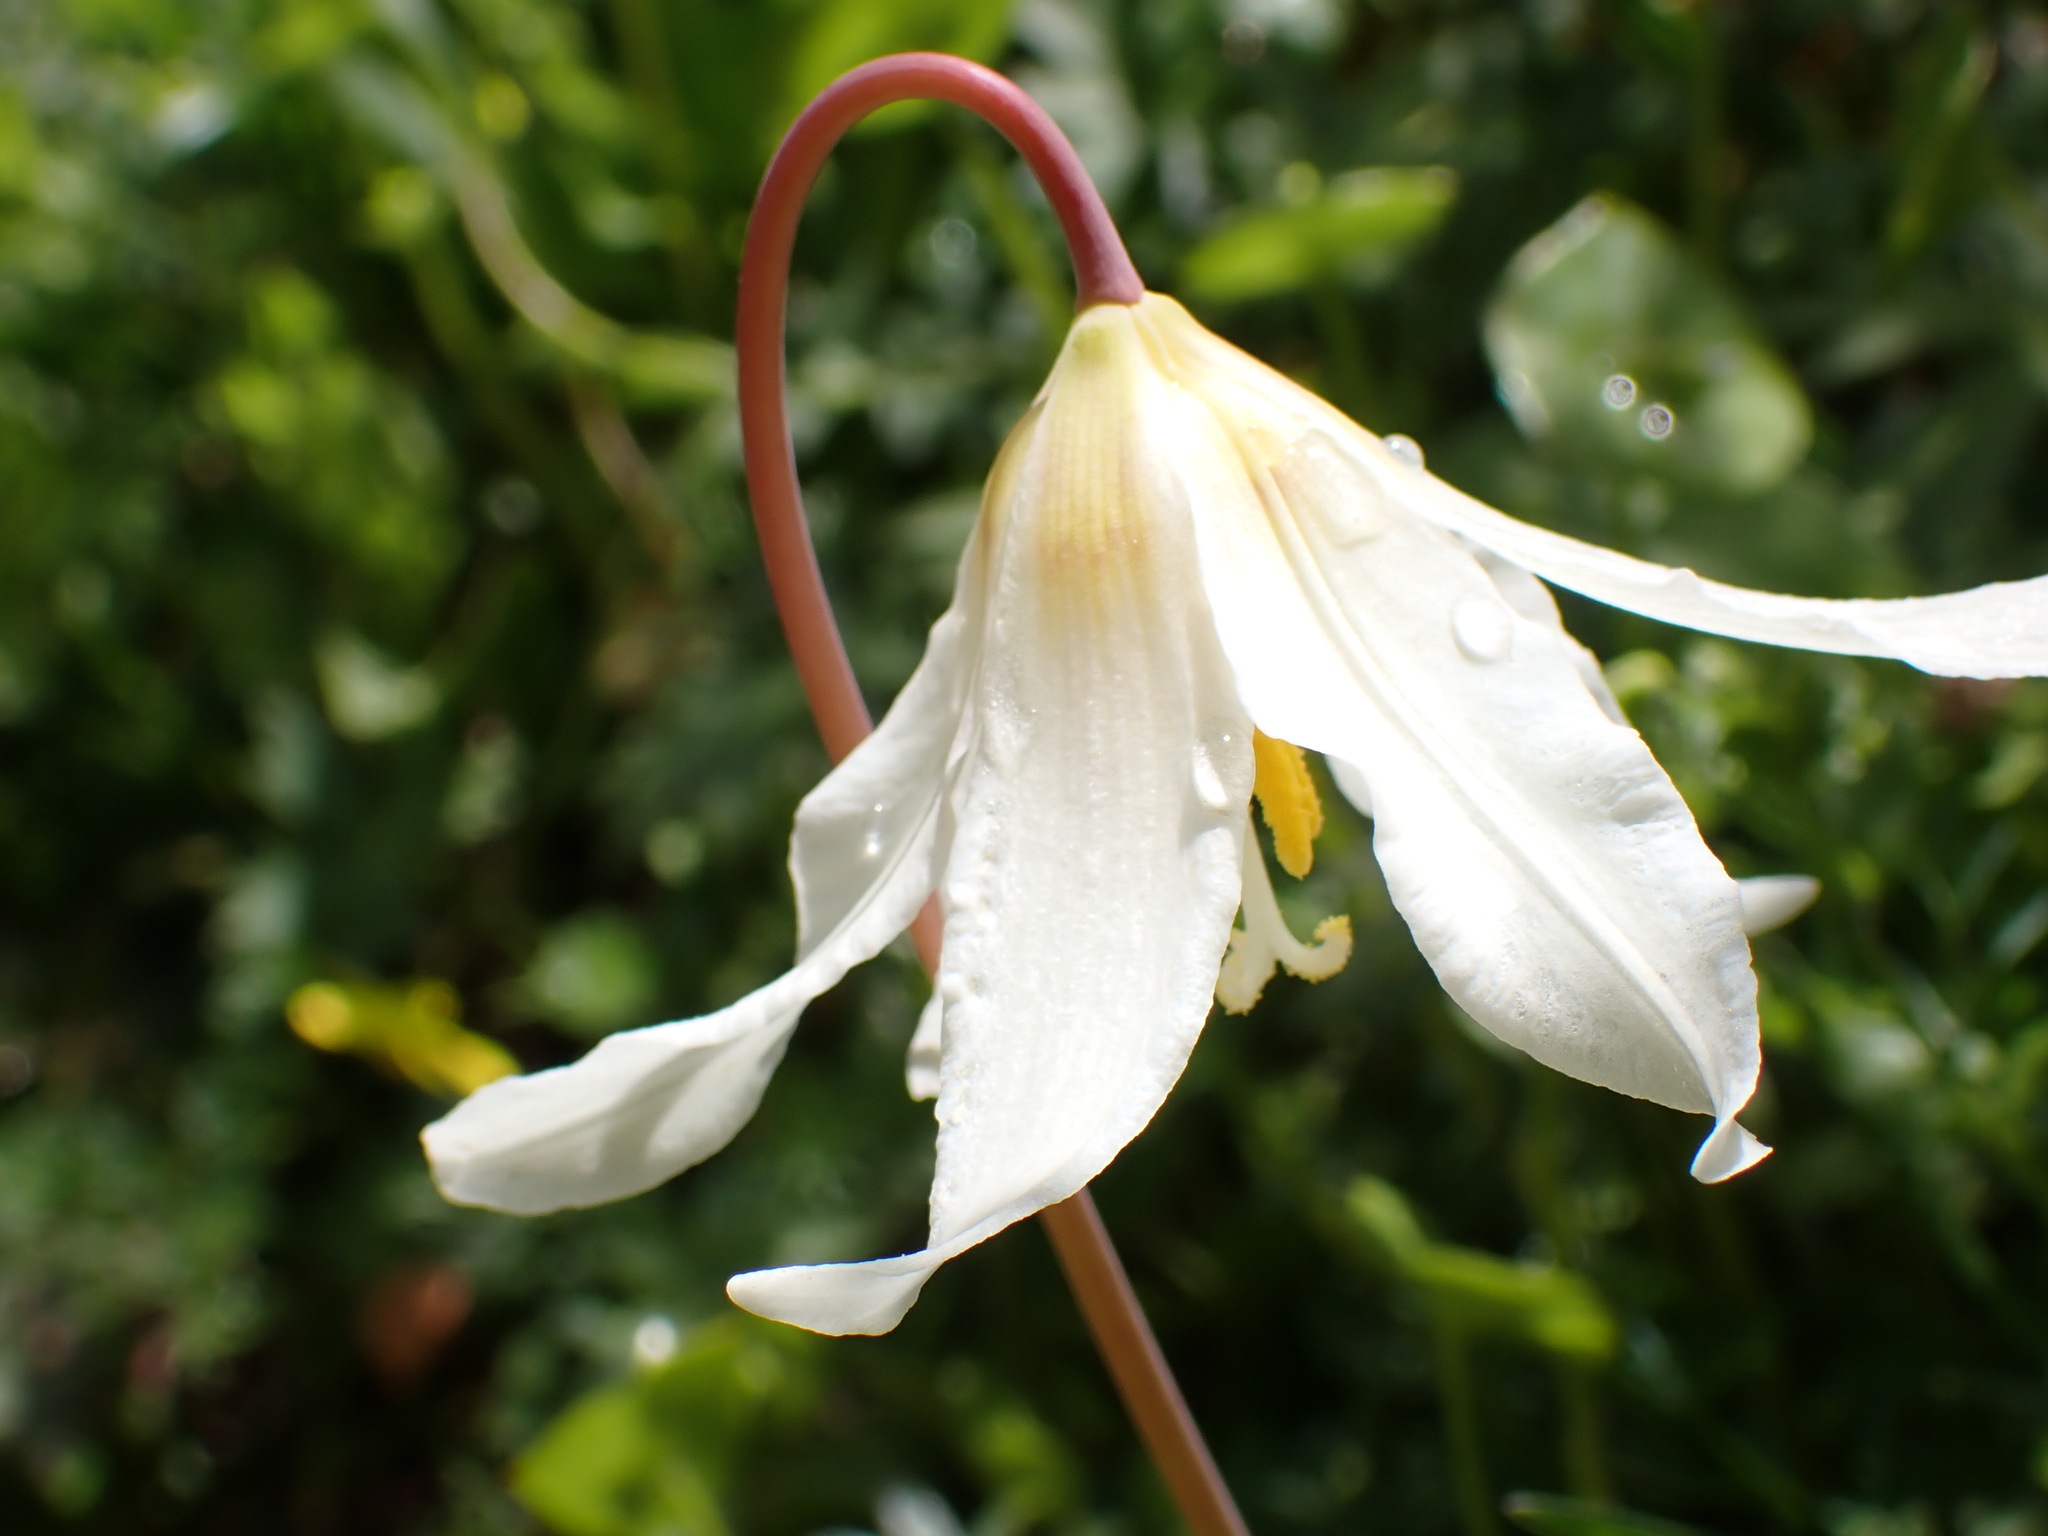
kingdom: Plantae
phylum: Tracheophyta
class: Liliopsida
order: Liliales
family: Liliaceae
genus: Erythronium
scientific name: Erythronium oregonum
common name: Giant adder's-tongue
